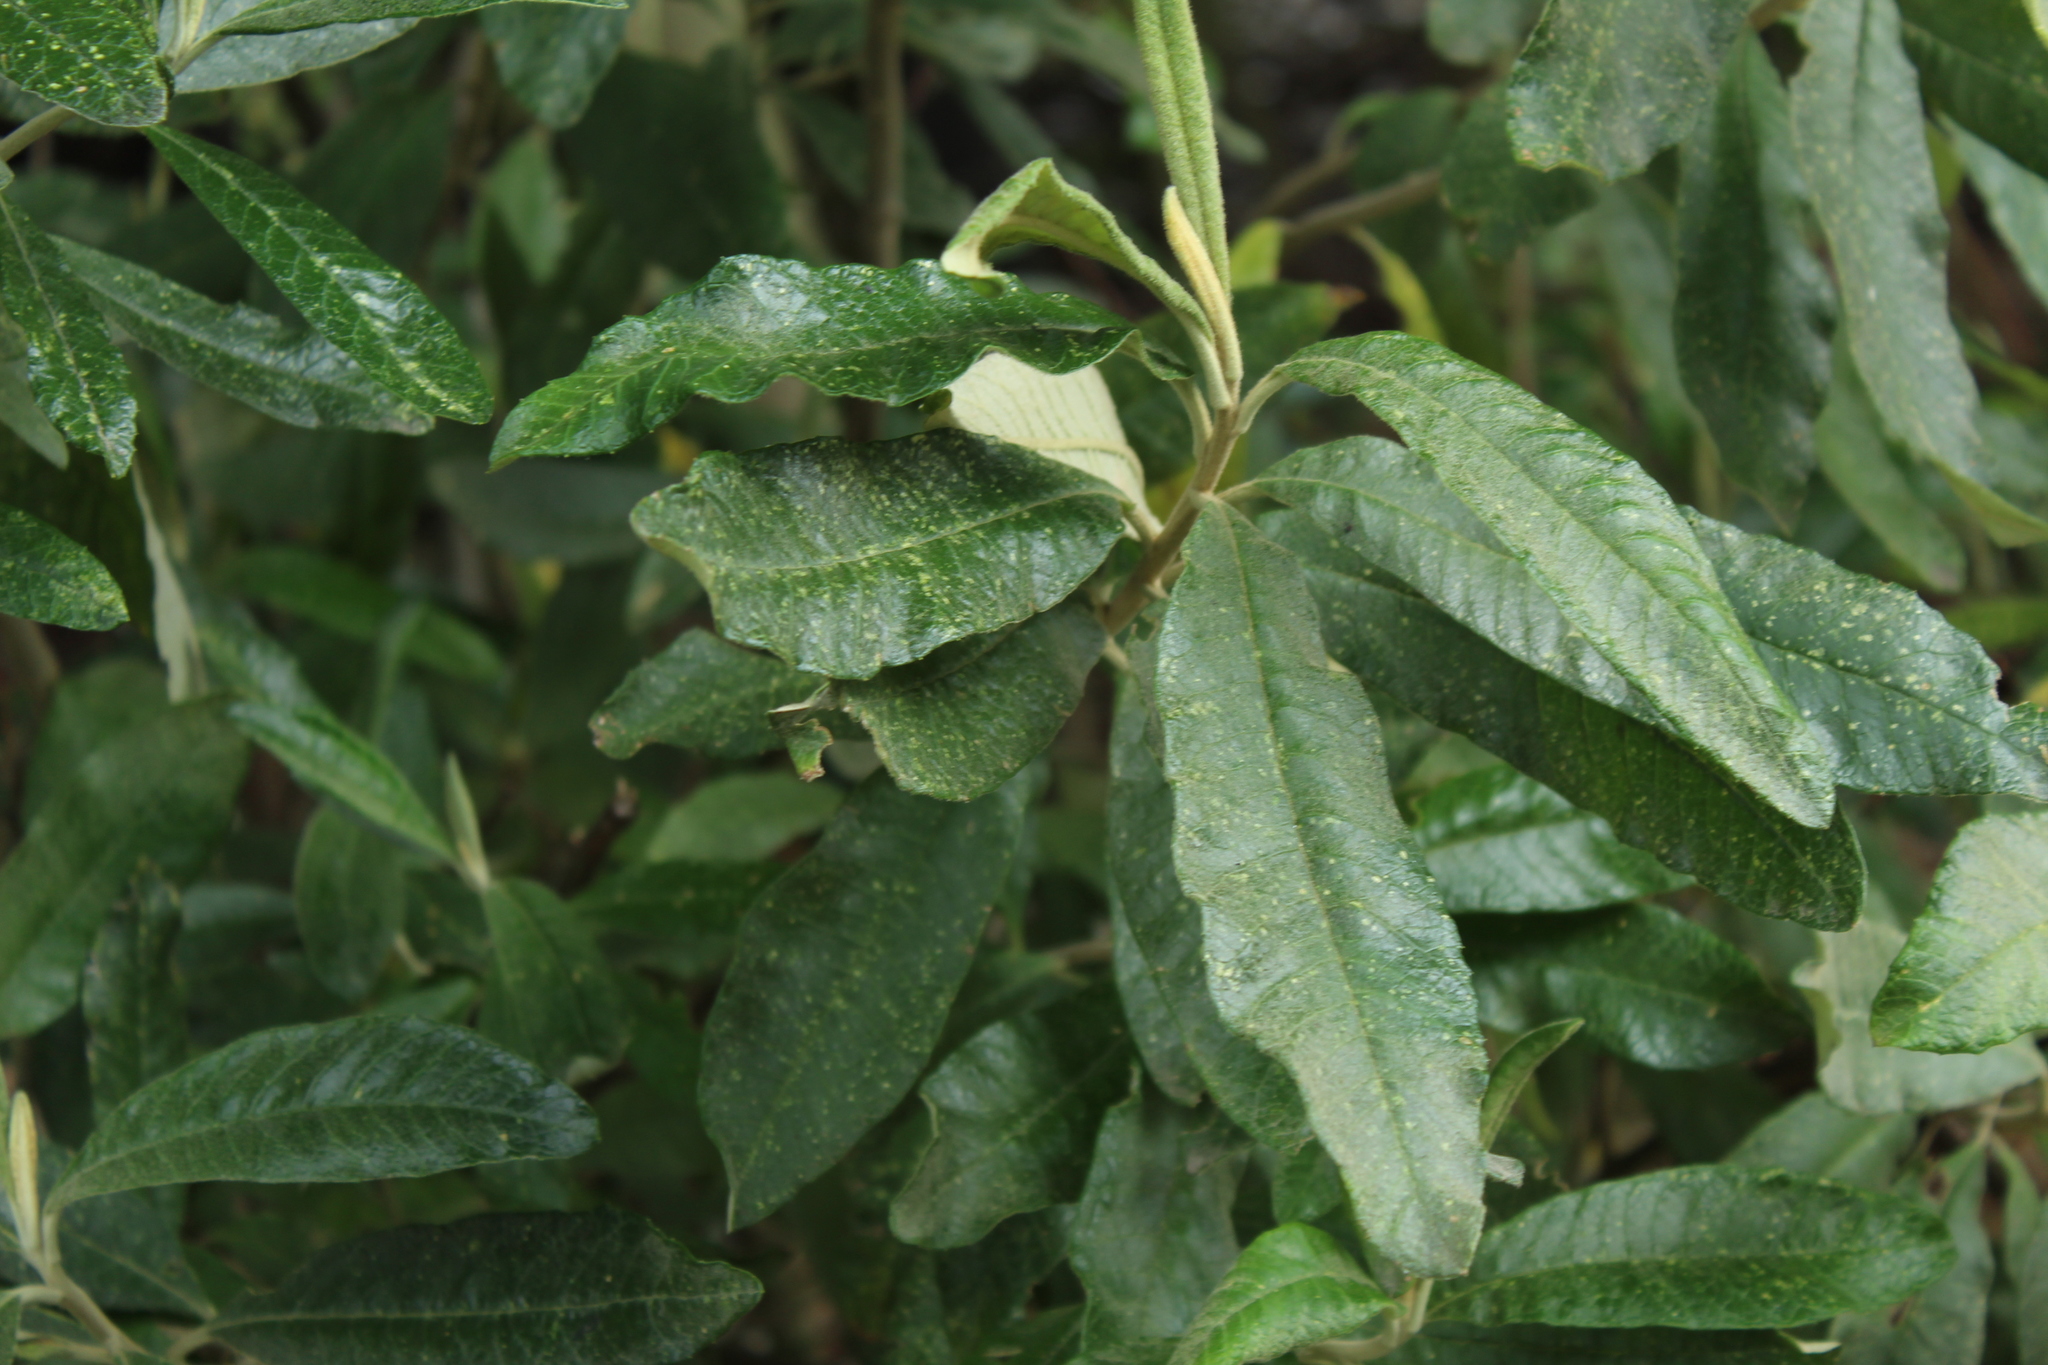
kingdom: Plantae
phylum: Tracheophyta
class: Magnoliopsida
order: Asterales
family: Asteraceae
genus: Linochilus
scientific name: Linochilus tenuifolius
